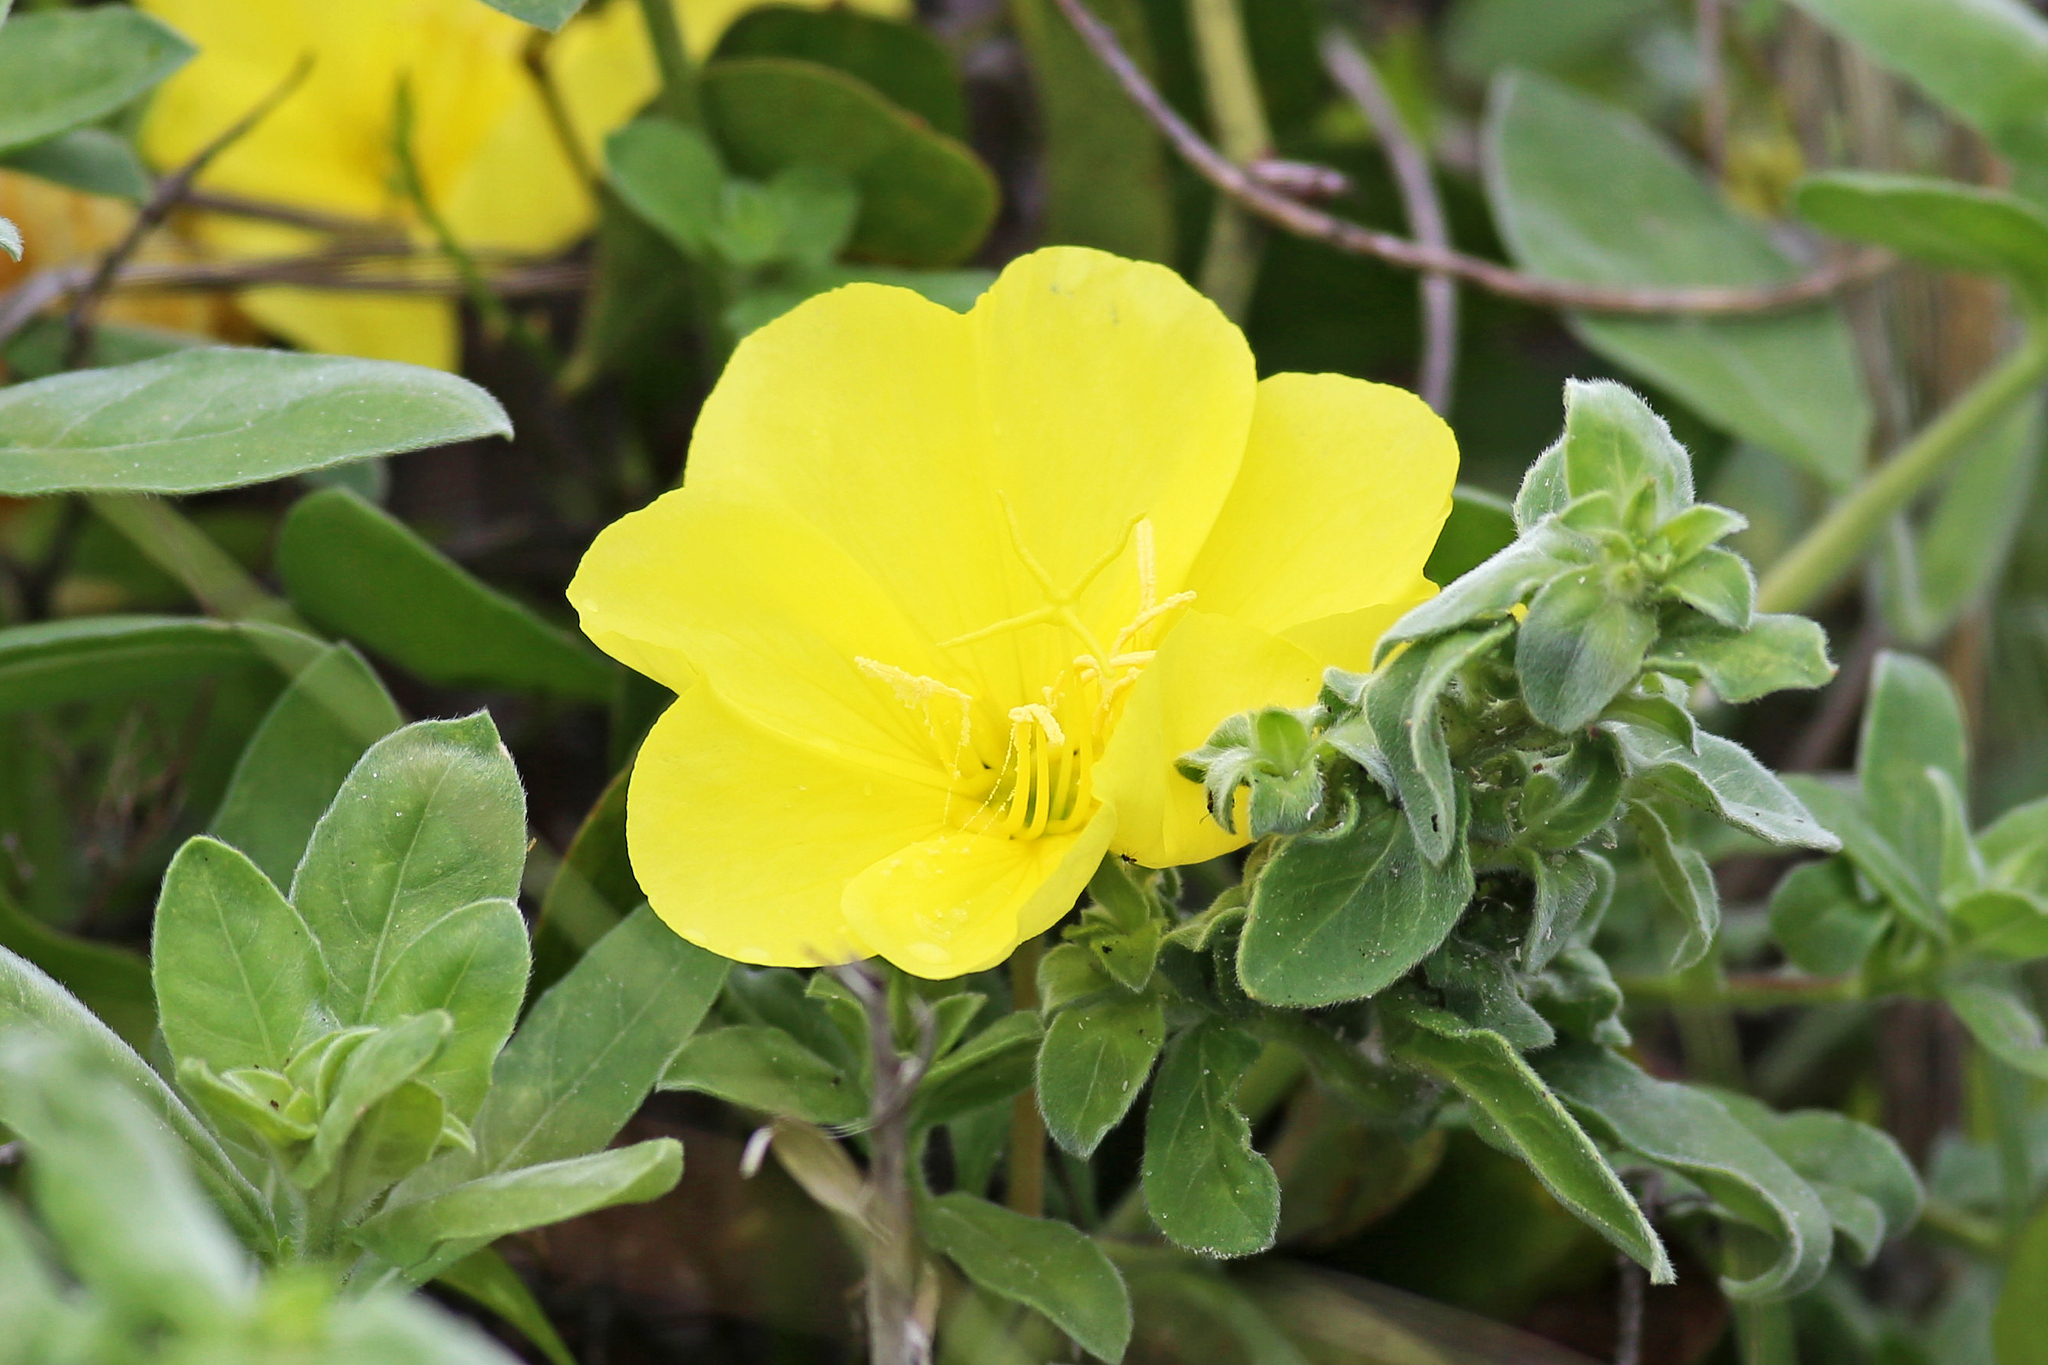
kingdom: Plantae
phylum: Tracheophyta
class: Magnoliopsida
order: Myrtales
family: Onagraceae
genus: Oenothera
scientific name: Oenothera drummondii
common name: Beach evening-primrose
